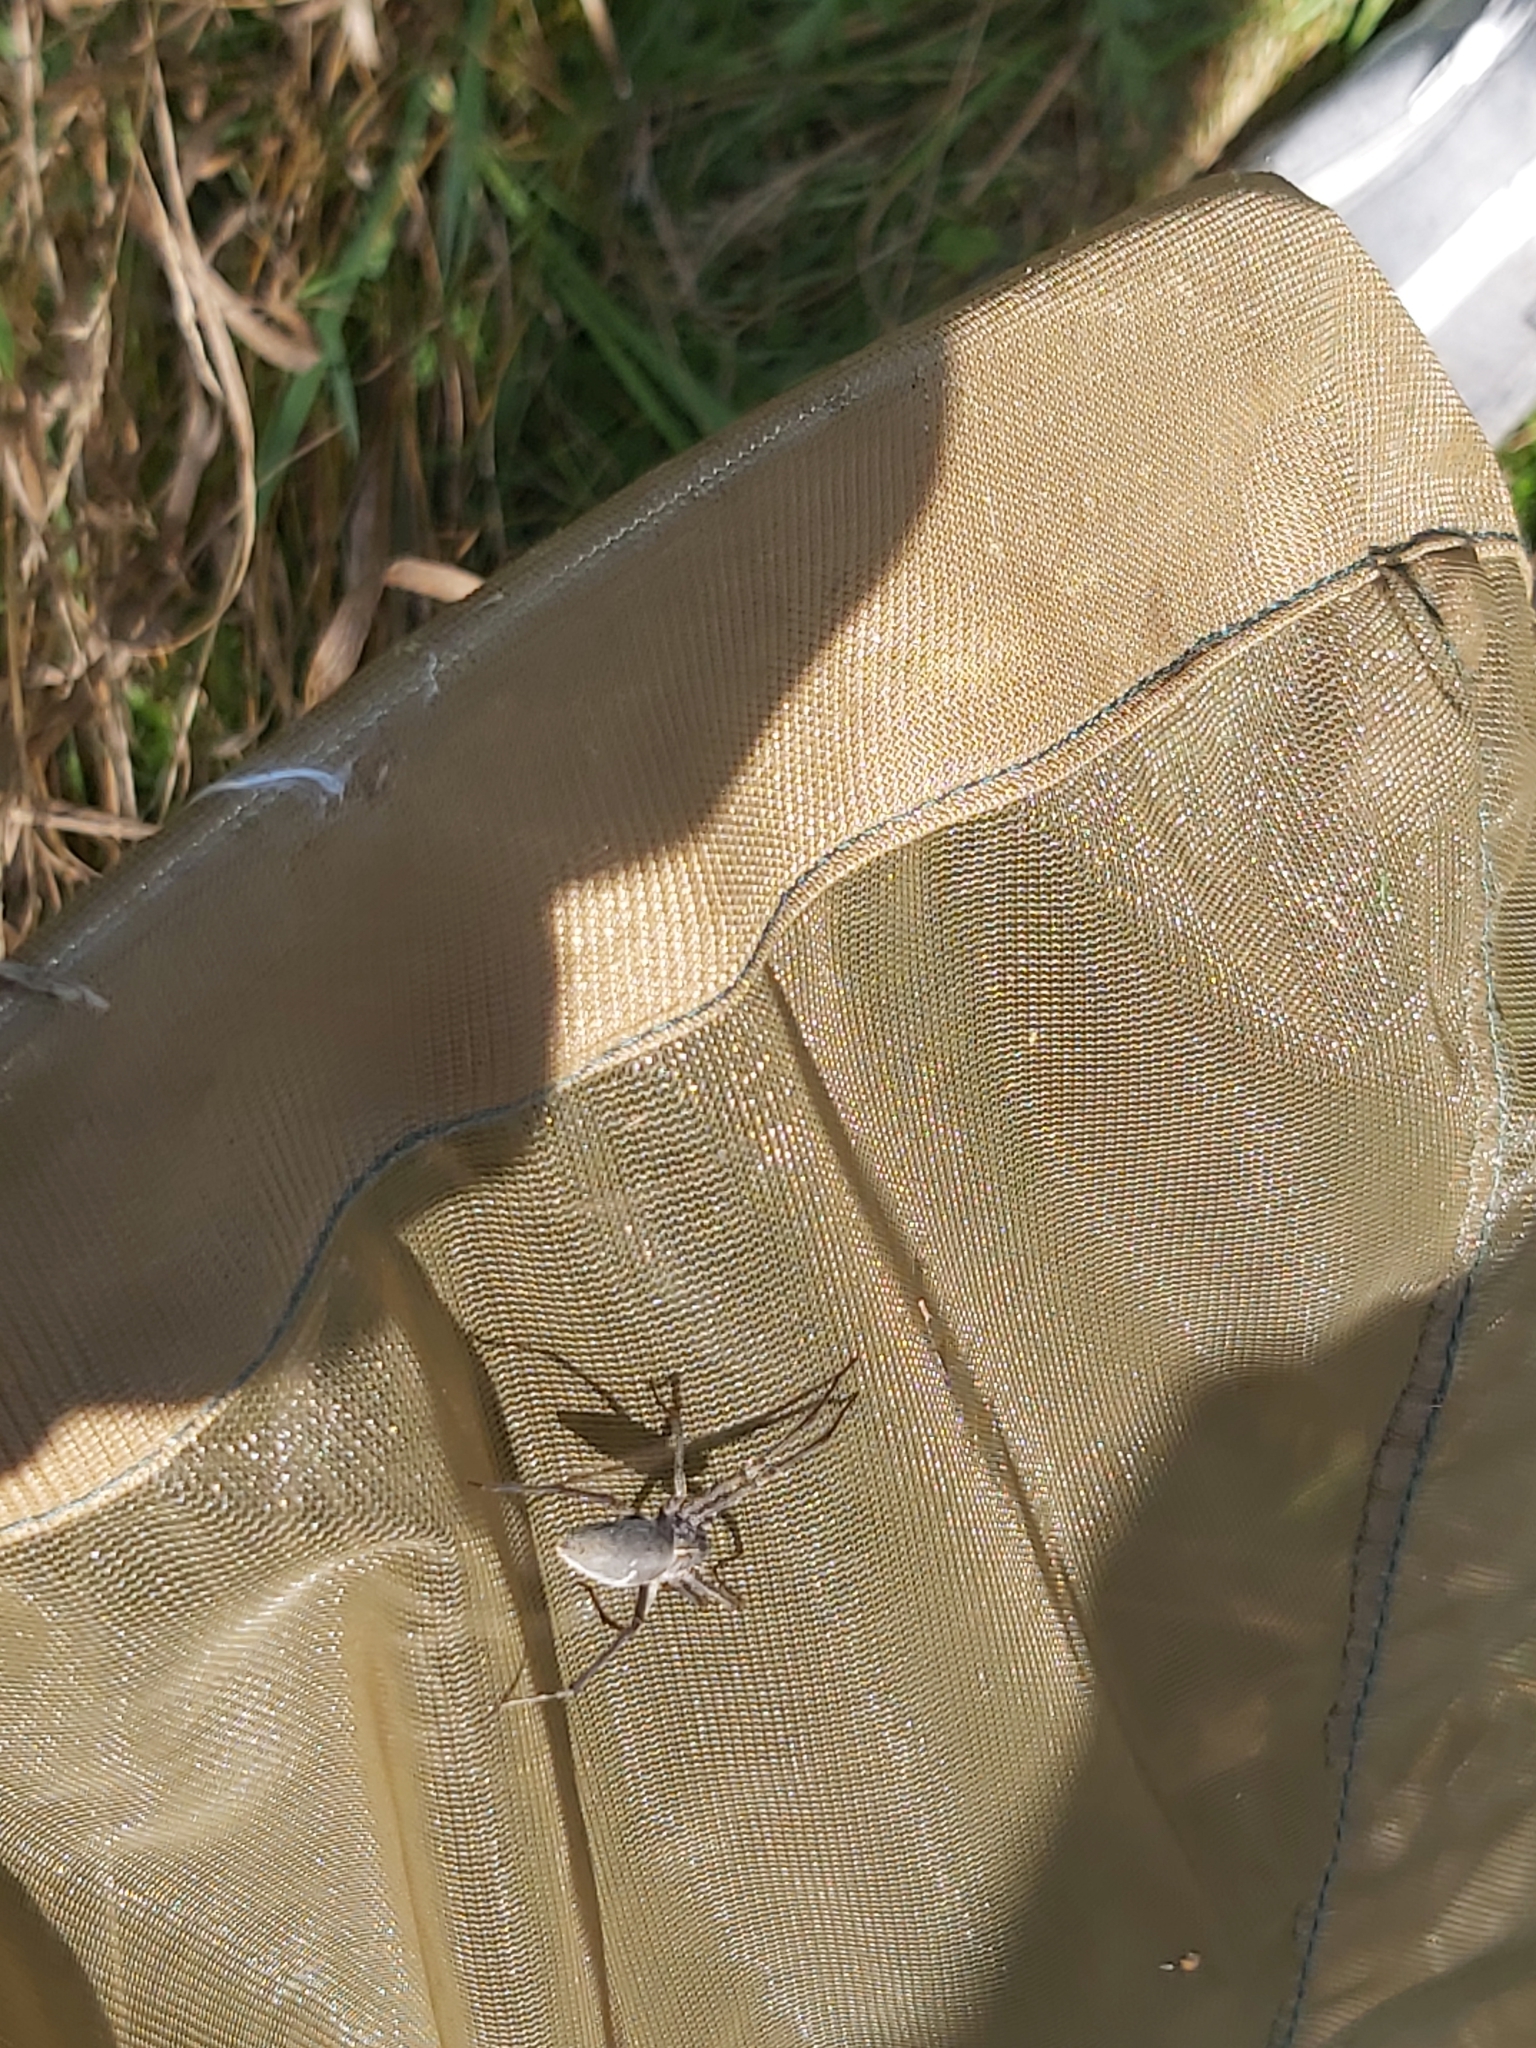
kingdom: Animalia
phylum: Arthropoda
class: Arachnida
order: Araneae
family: Pisauridae
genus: Pisaura
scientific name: Pisaura mirabilis
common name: Tent spider
